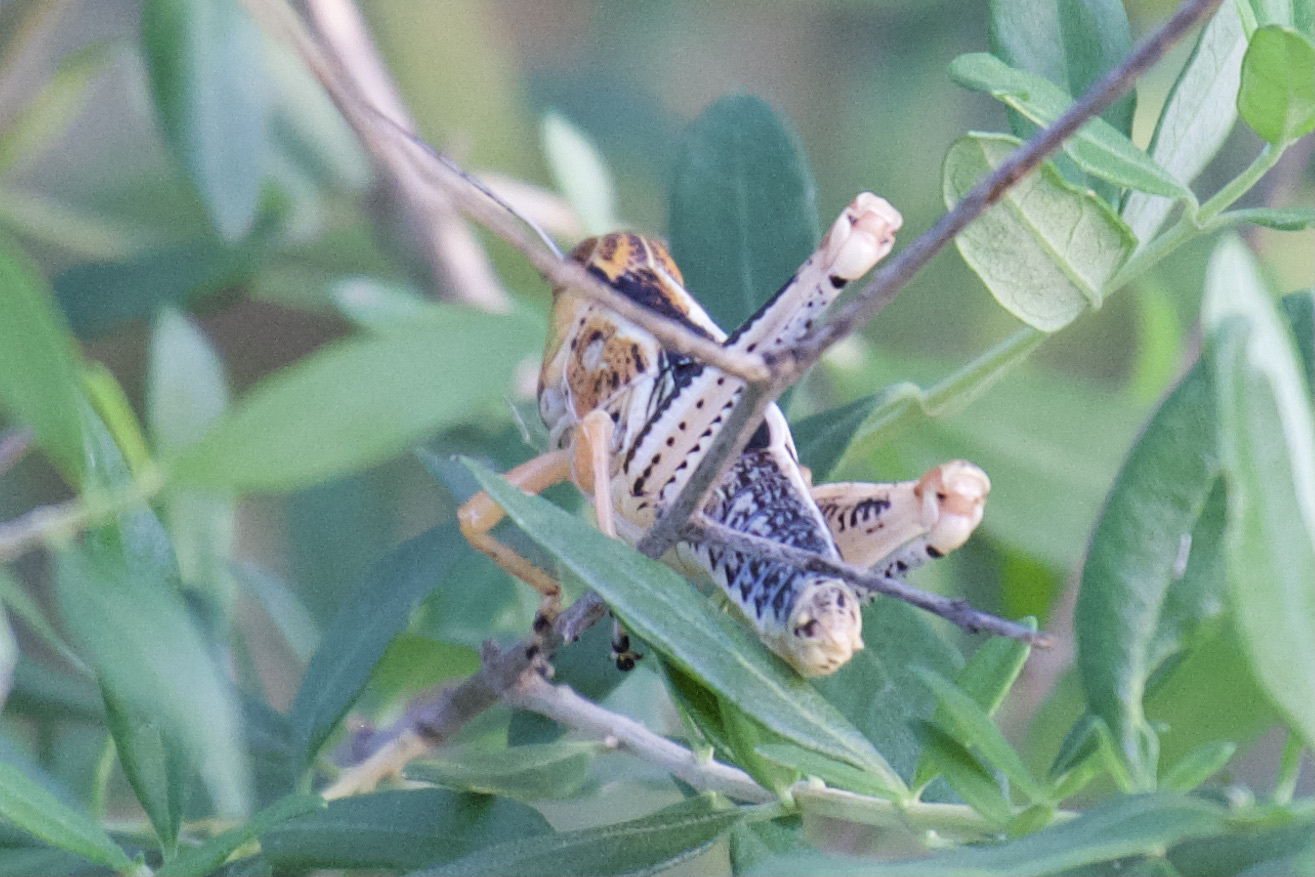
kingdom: Animalia
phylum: Arthropoda
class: Insecta
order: Orthoptera
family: Acrididae
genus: Melanoplus
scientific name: Melanoplus differentialis
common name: Differential grasshopper
